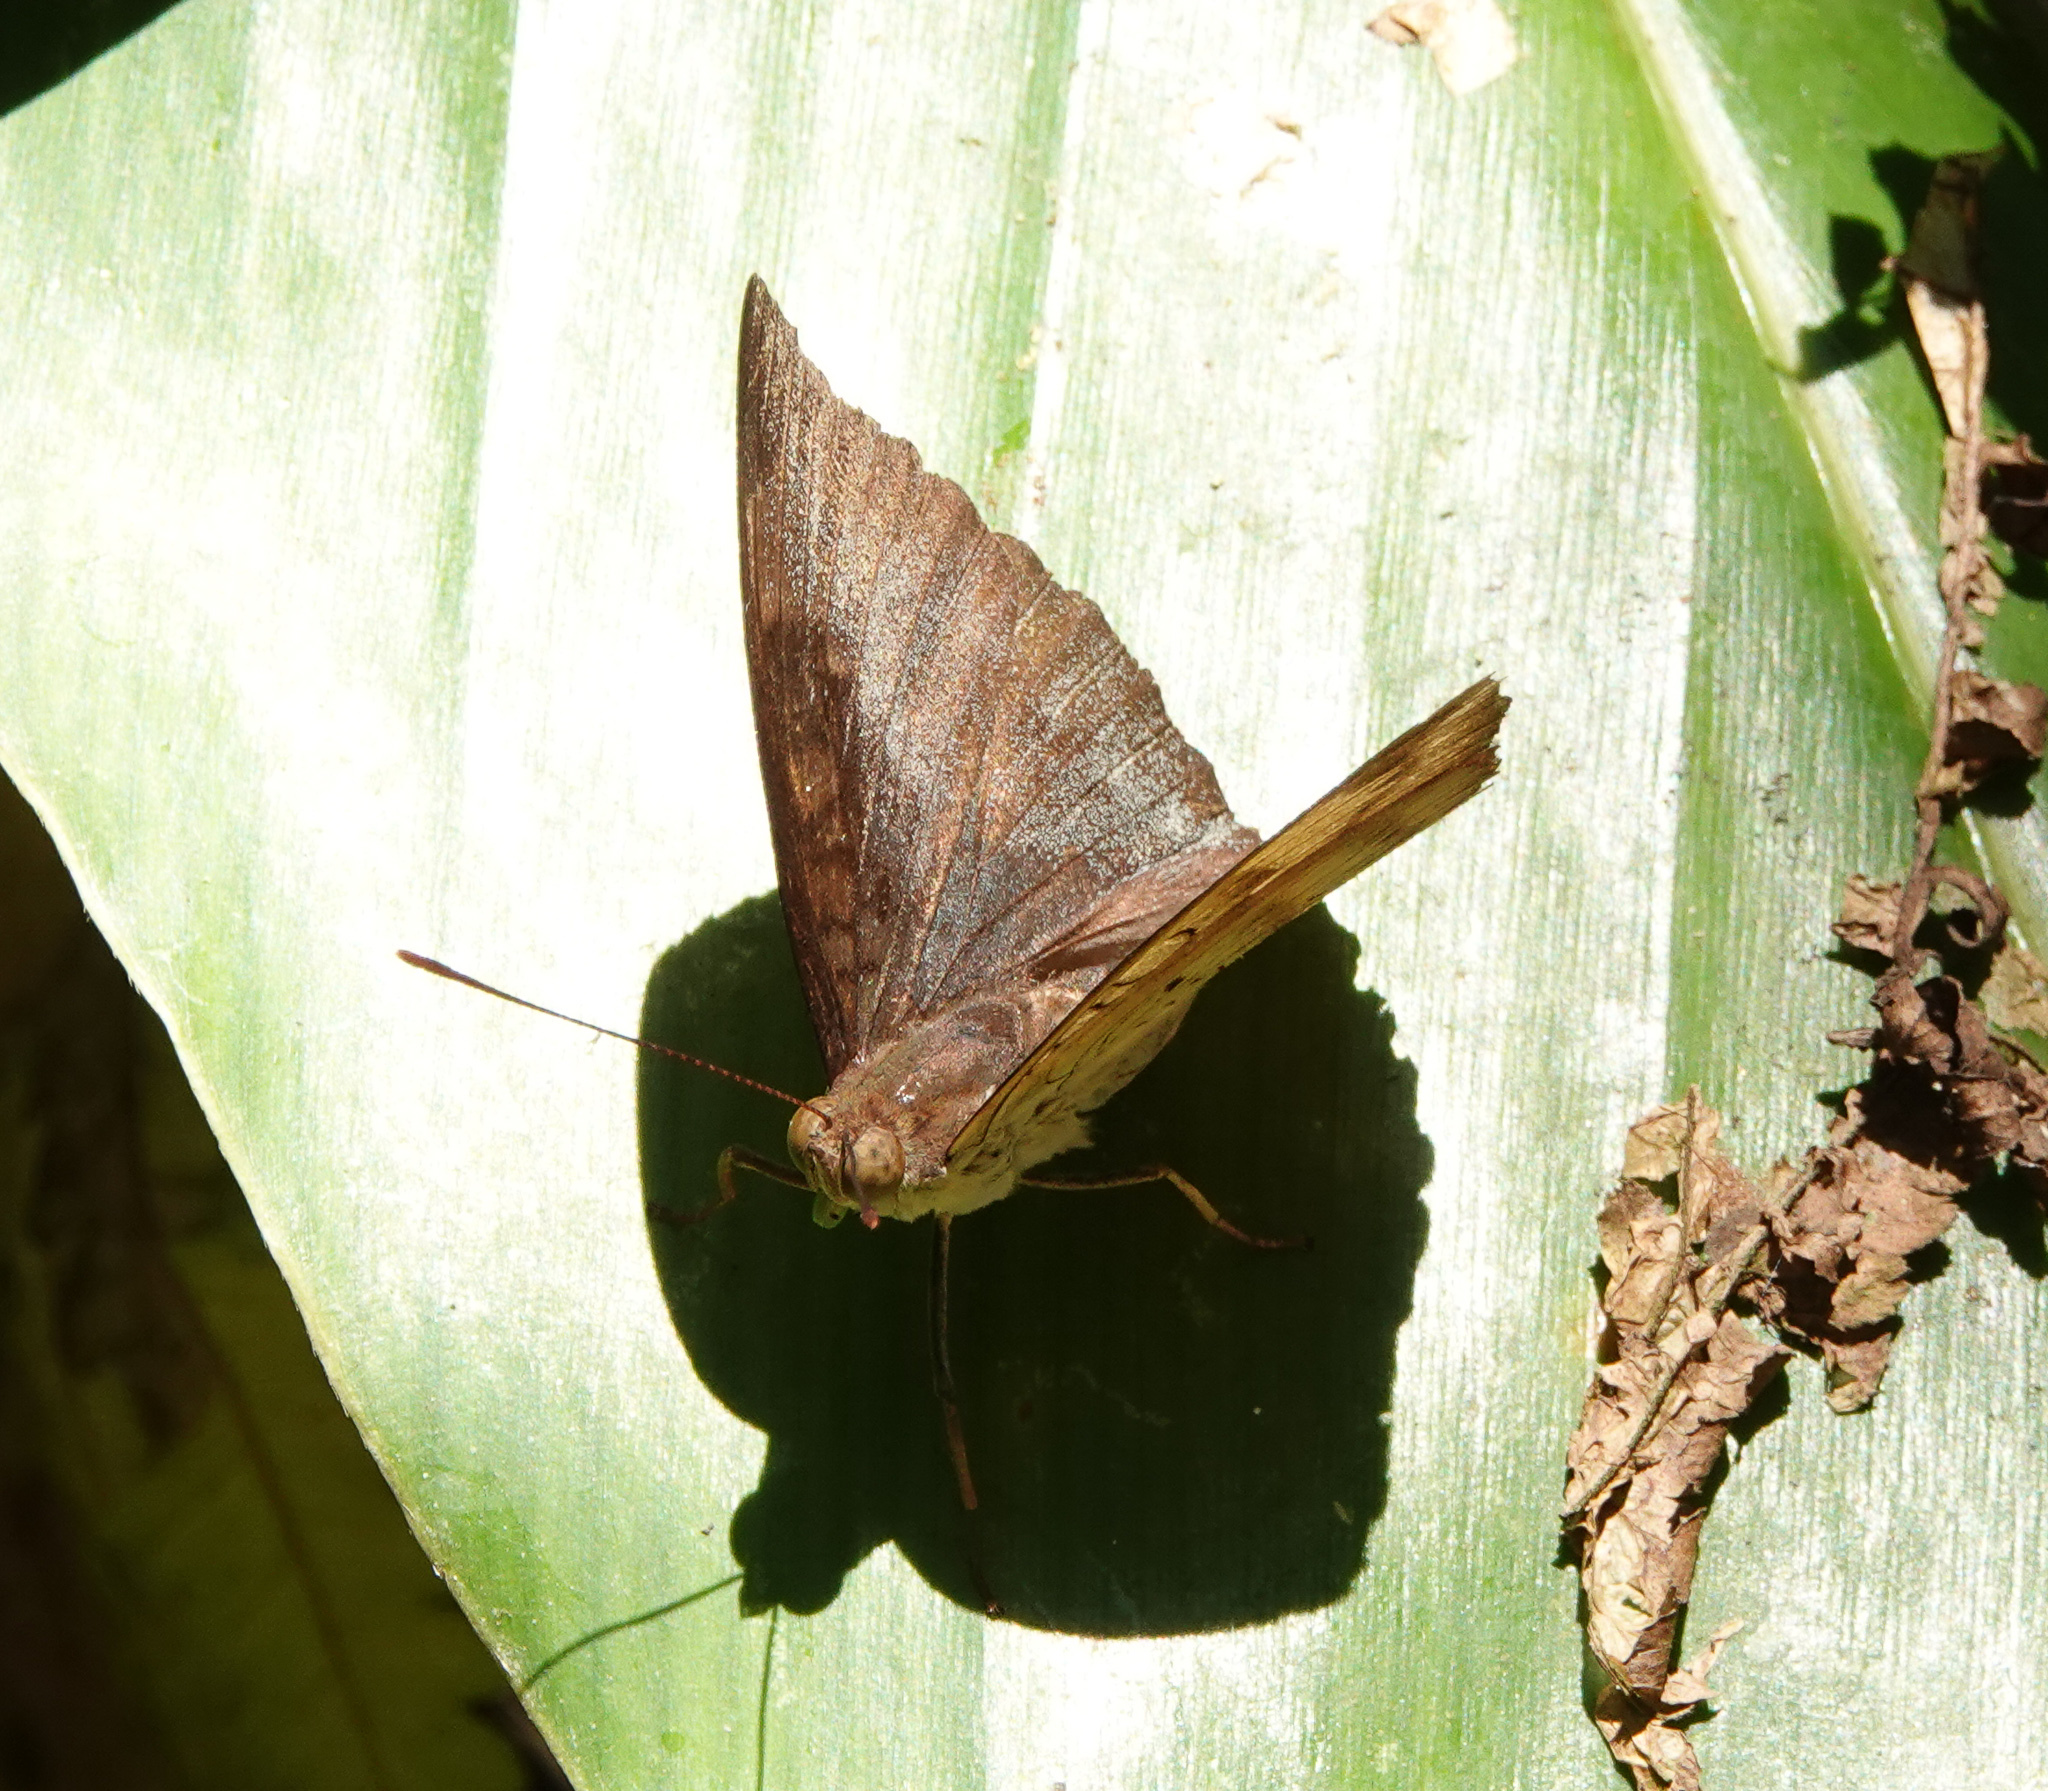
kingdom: Animalia
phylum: Arthropoda
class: Insecta
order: Lepidoptera
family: Nymphalidae
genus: Euthalia
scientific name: Euthalia aconthea
